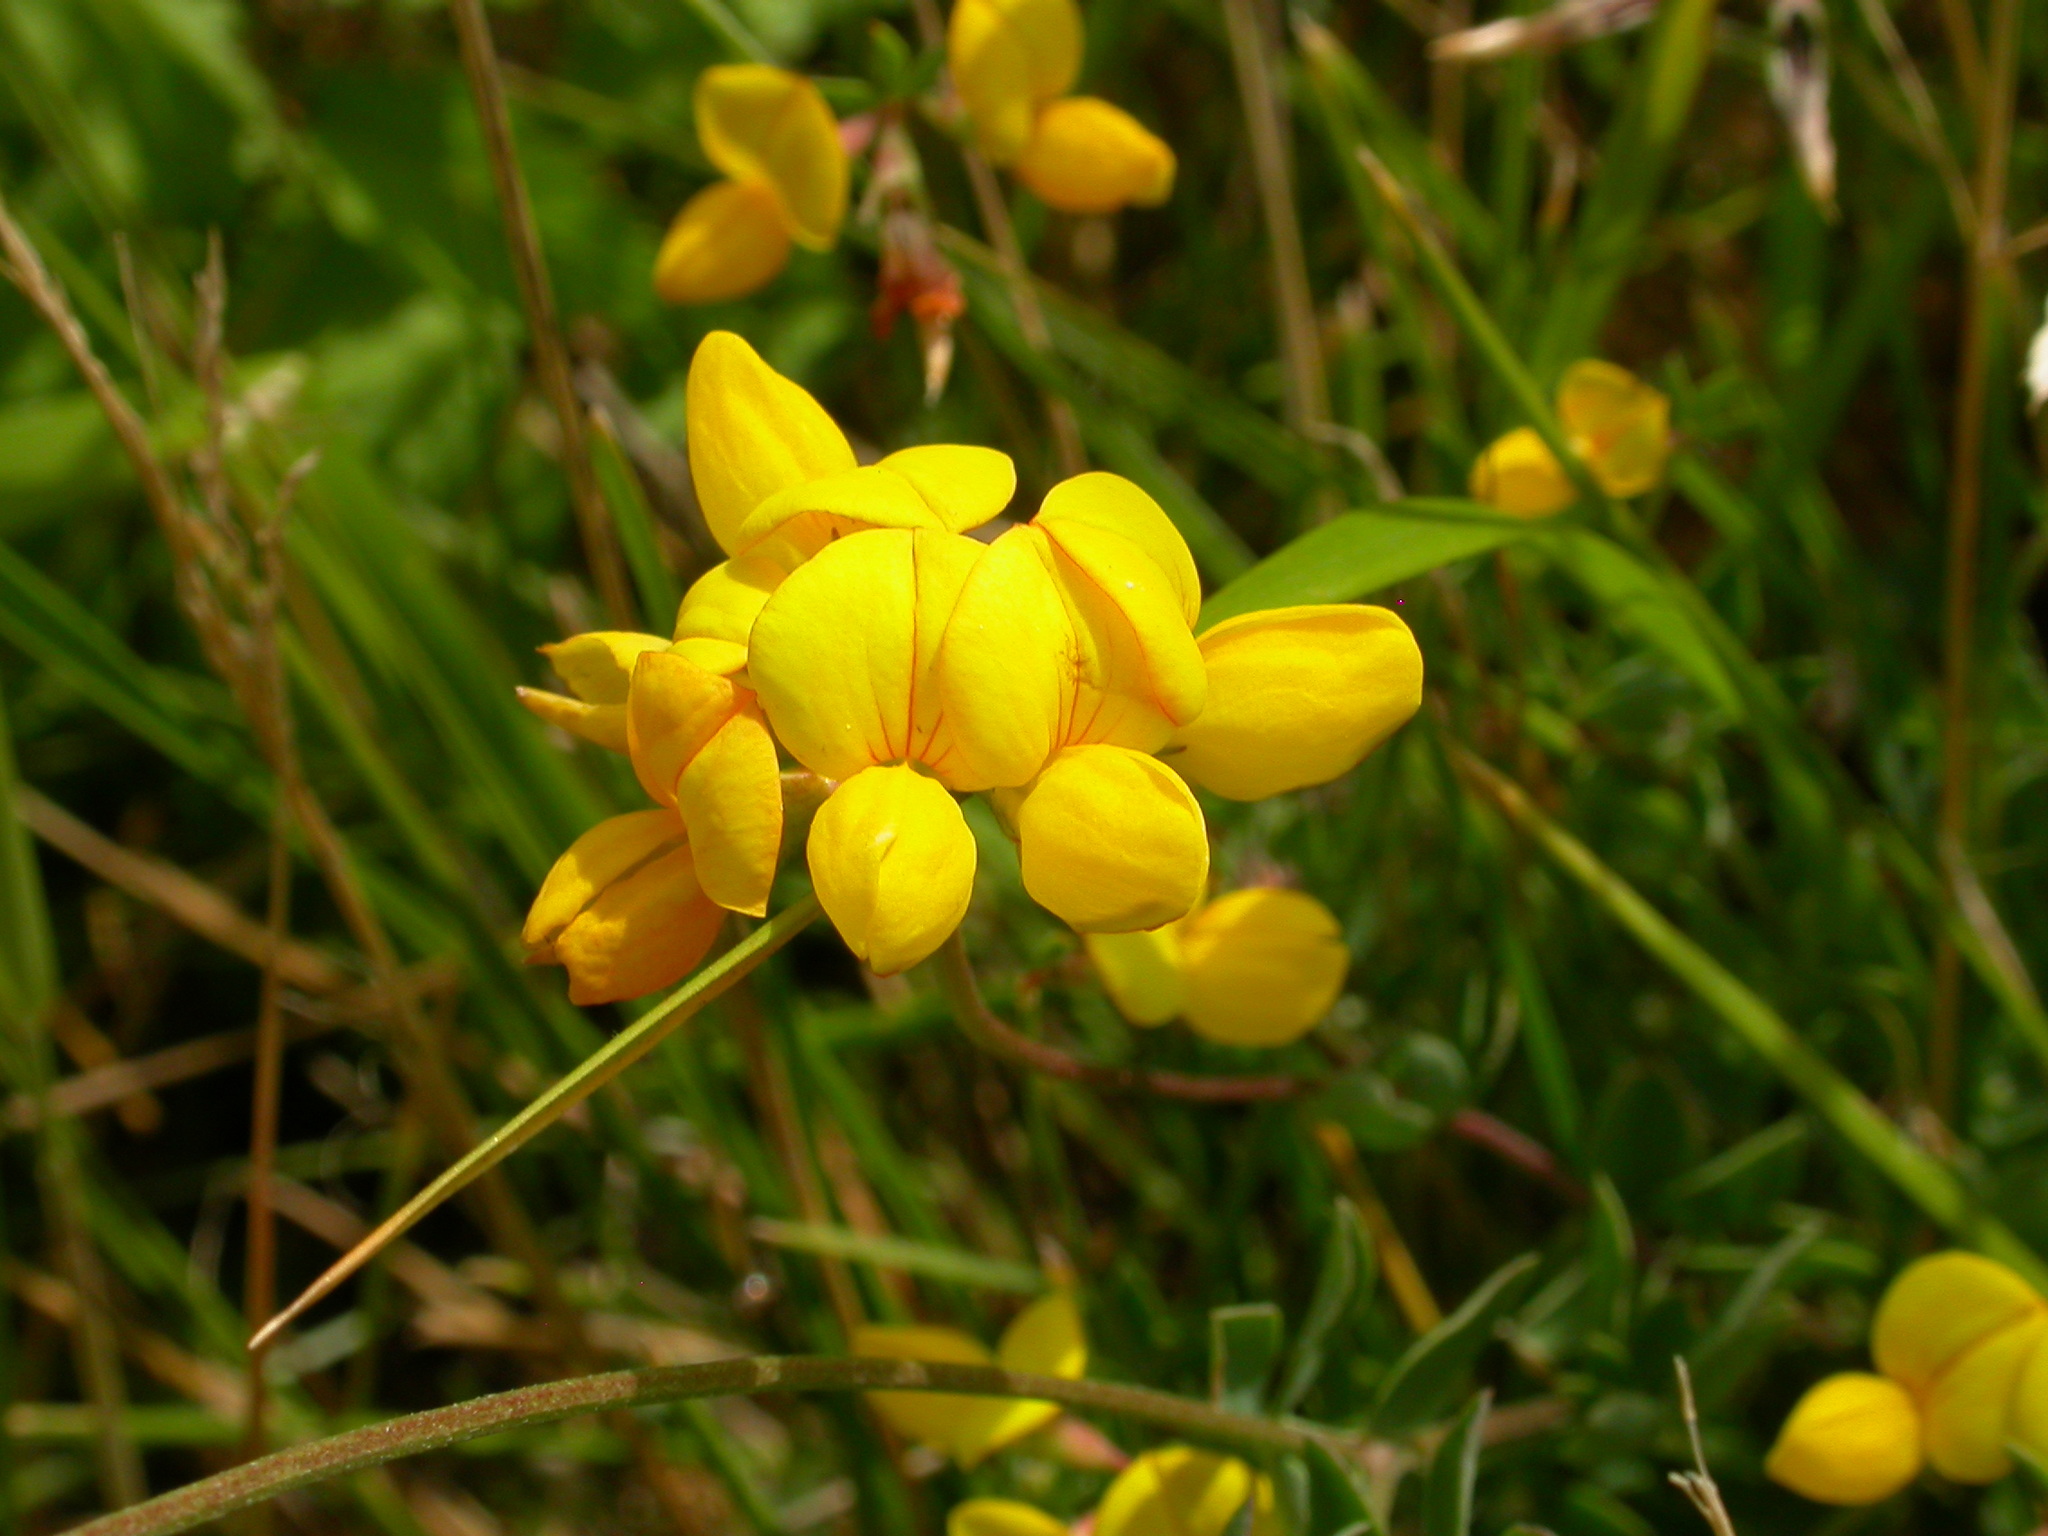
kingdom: Plantae
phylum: Tracheophyta
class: Magnoliopsida
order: Fabales
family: Fabaceae
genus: Lotus
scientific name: Lotus corniculatus
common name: Common bird's-foot-trefoil
